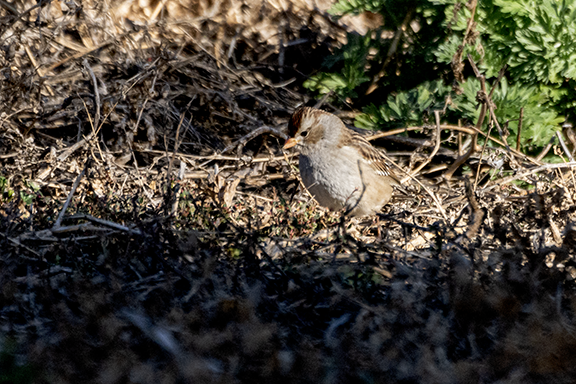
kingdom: Animalia
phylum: Chordata
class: Aves
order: Passeriformes
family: Passerellidae
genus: Zonotrichia
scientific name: Zonotrichia leucophrys
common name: White-crowned sparrow
